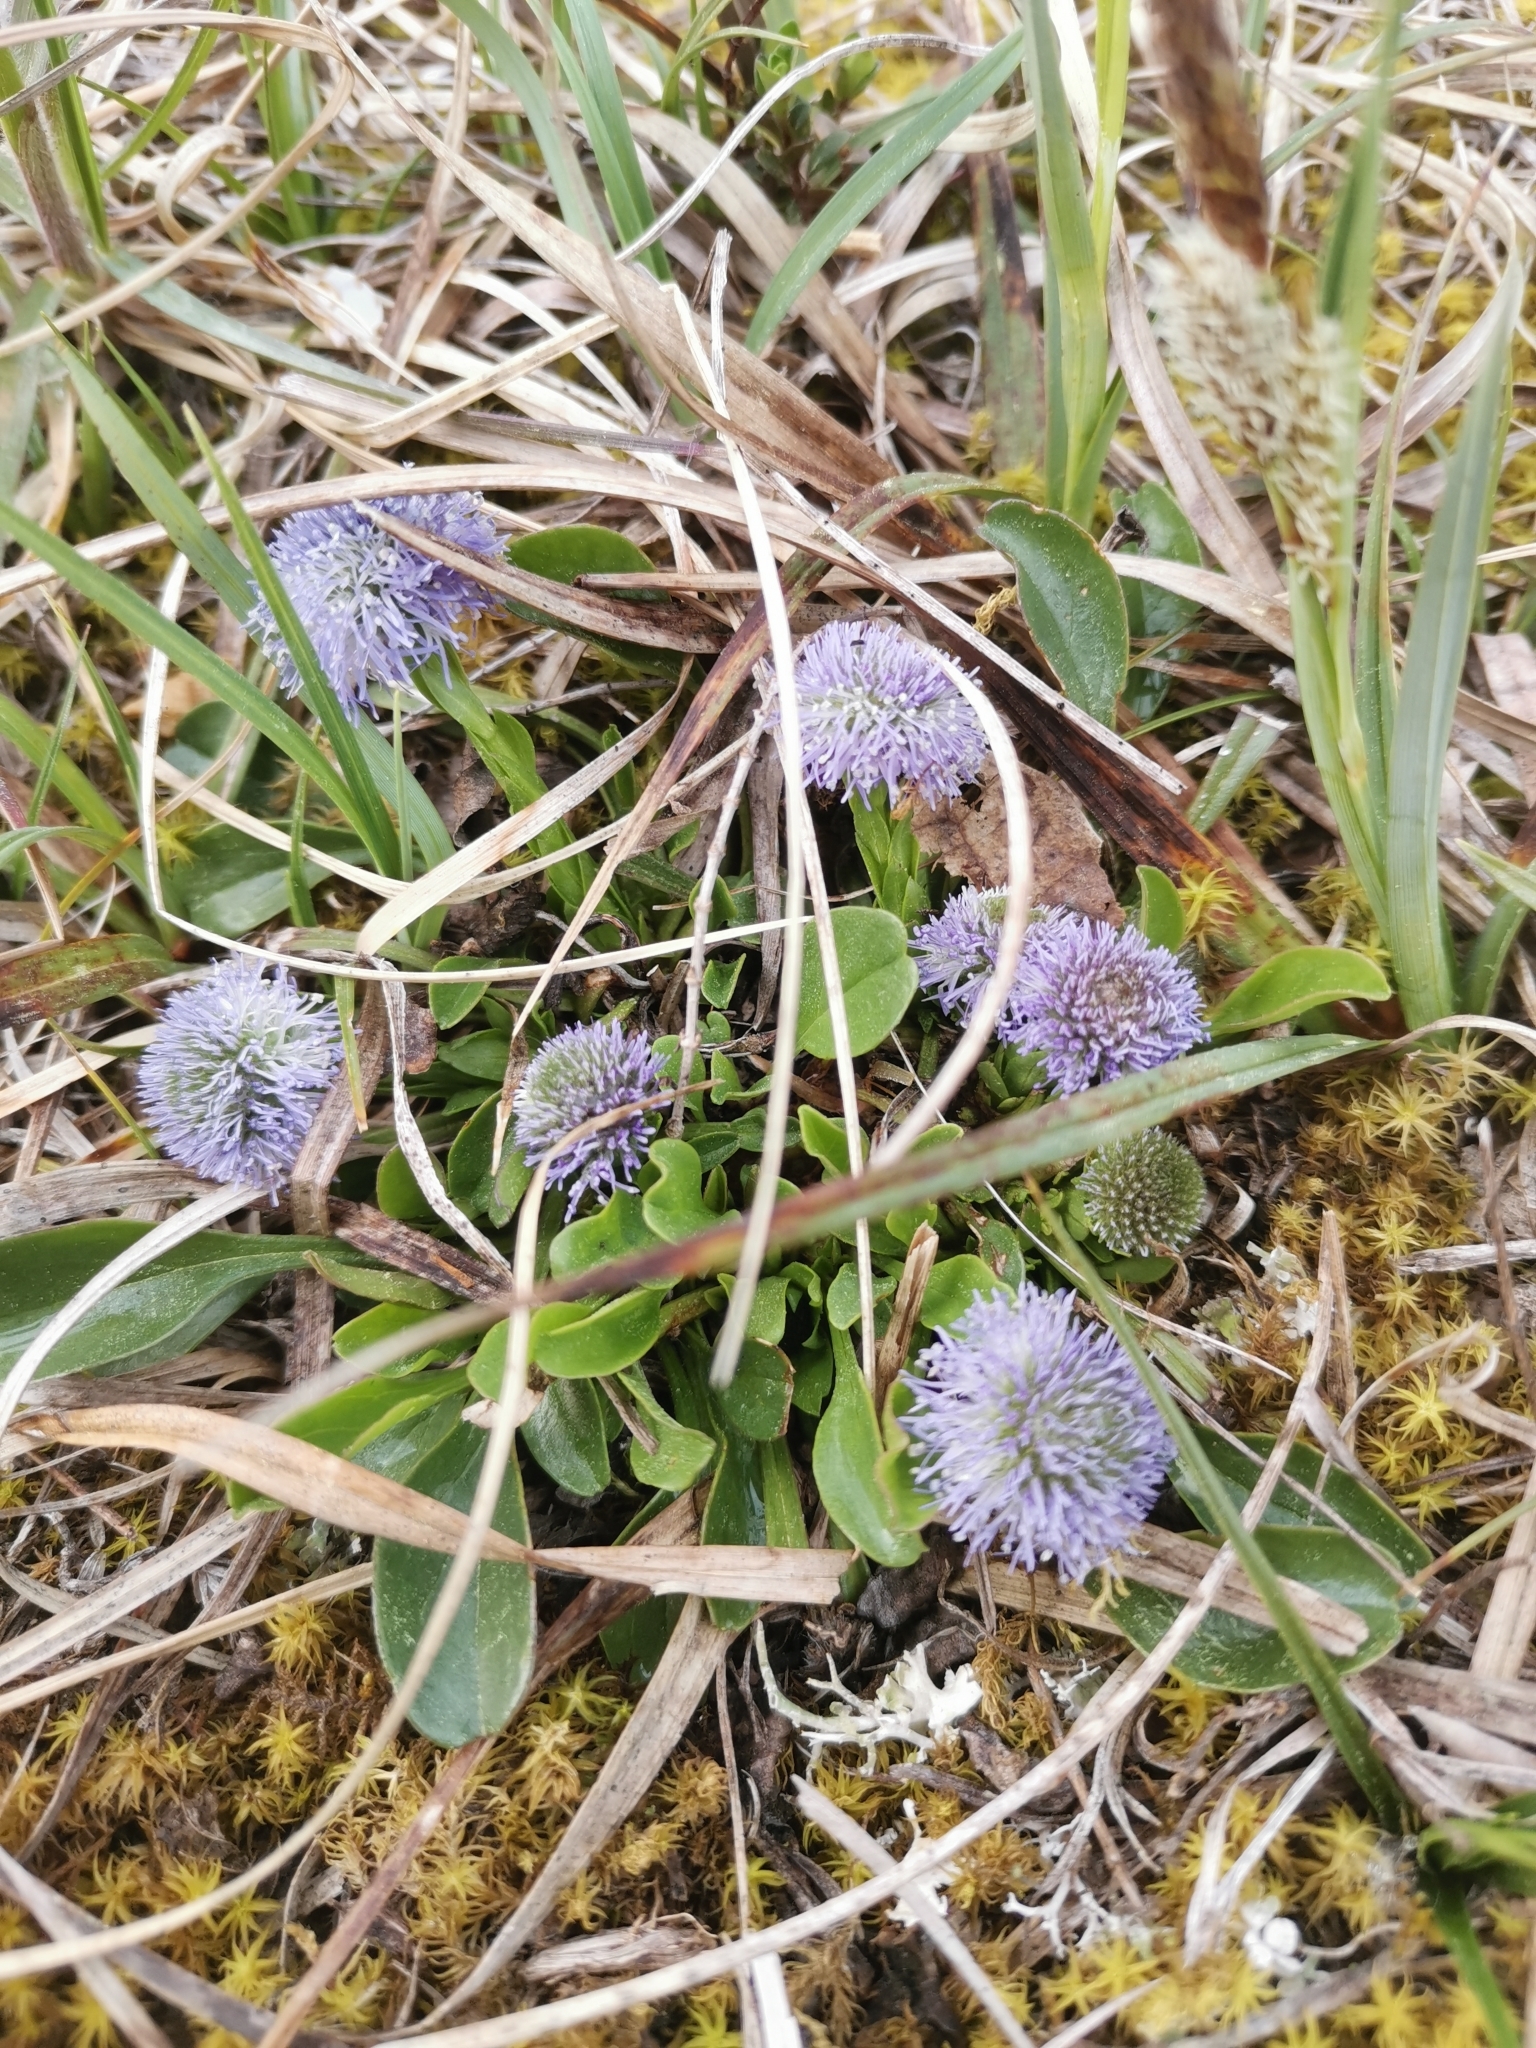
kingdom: Plantae
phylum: Tracheophyta
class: Magnoliopsida
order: Lamiales
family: Plantaginaceae
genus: Globularia
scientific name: Globularia bisnagarica
